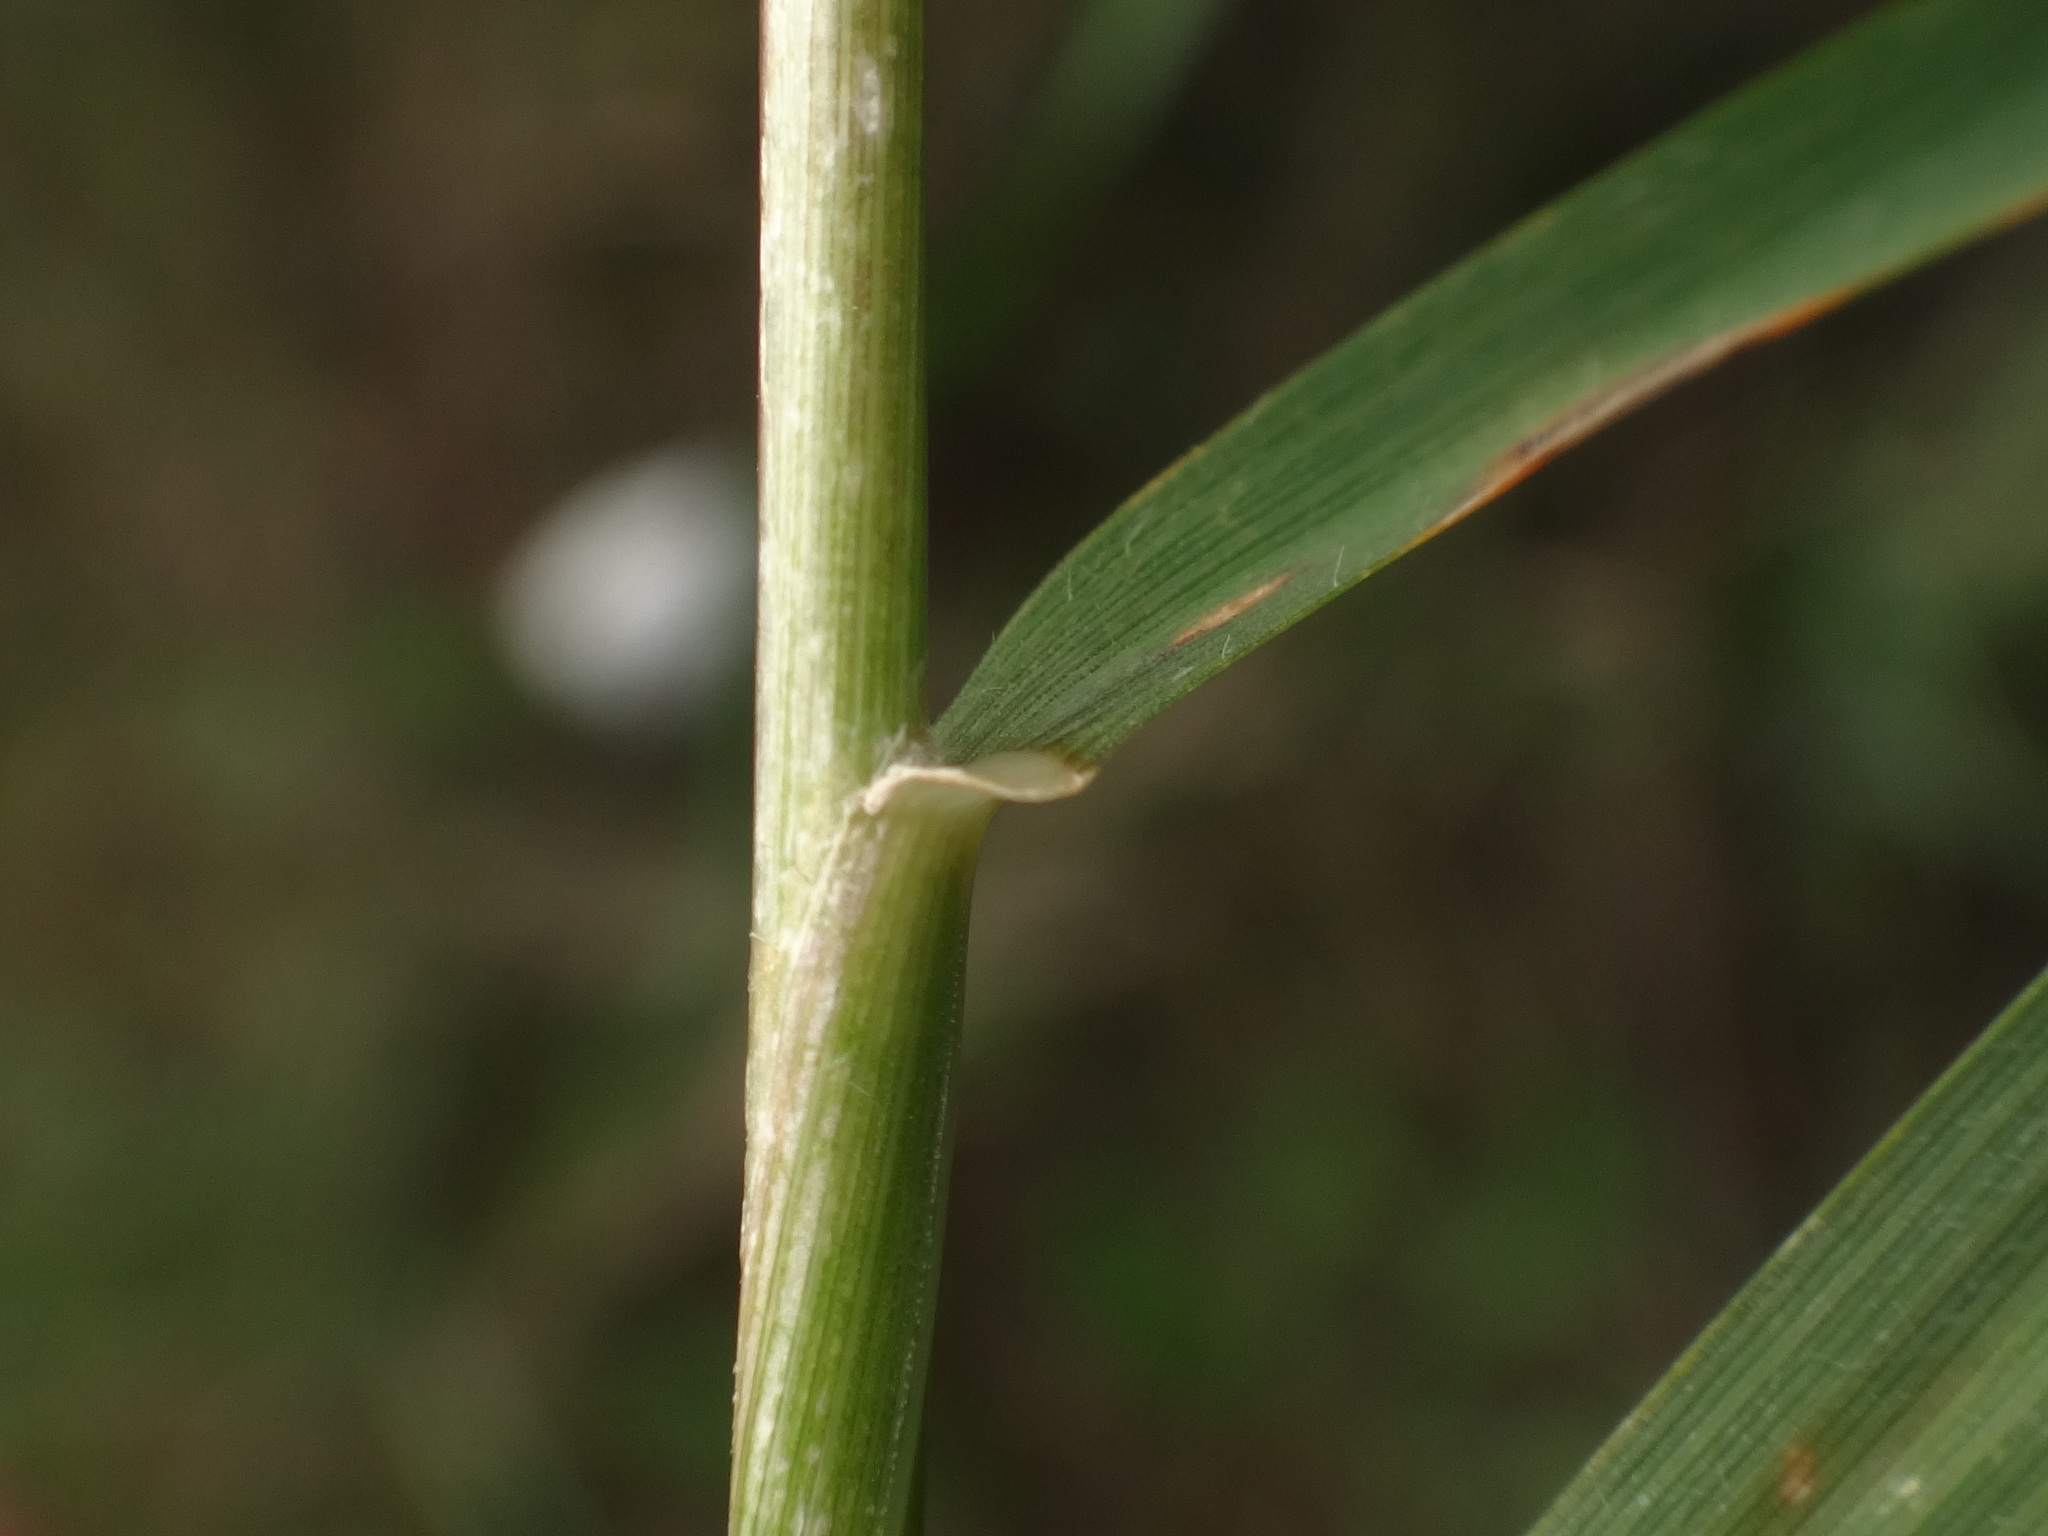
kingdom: Plantae
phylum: Tracheophyta
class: Liliopsida
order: Poales
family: Poaceae
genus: Oloptum
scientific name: Oloptum miliaceum
